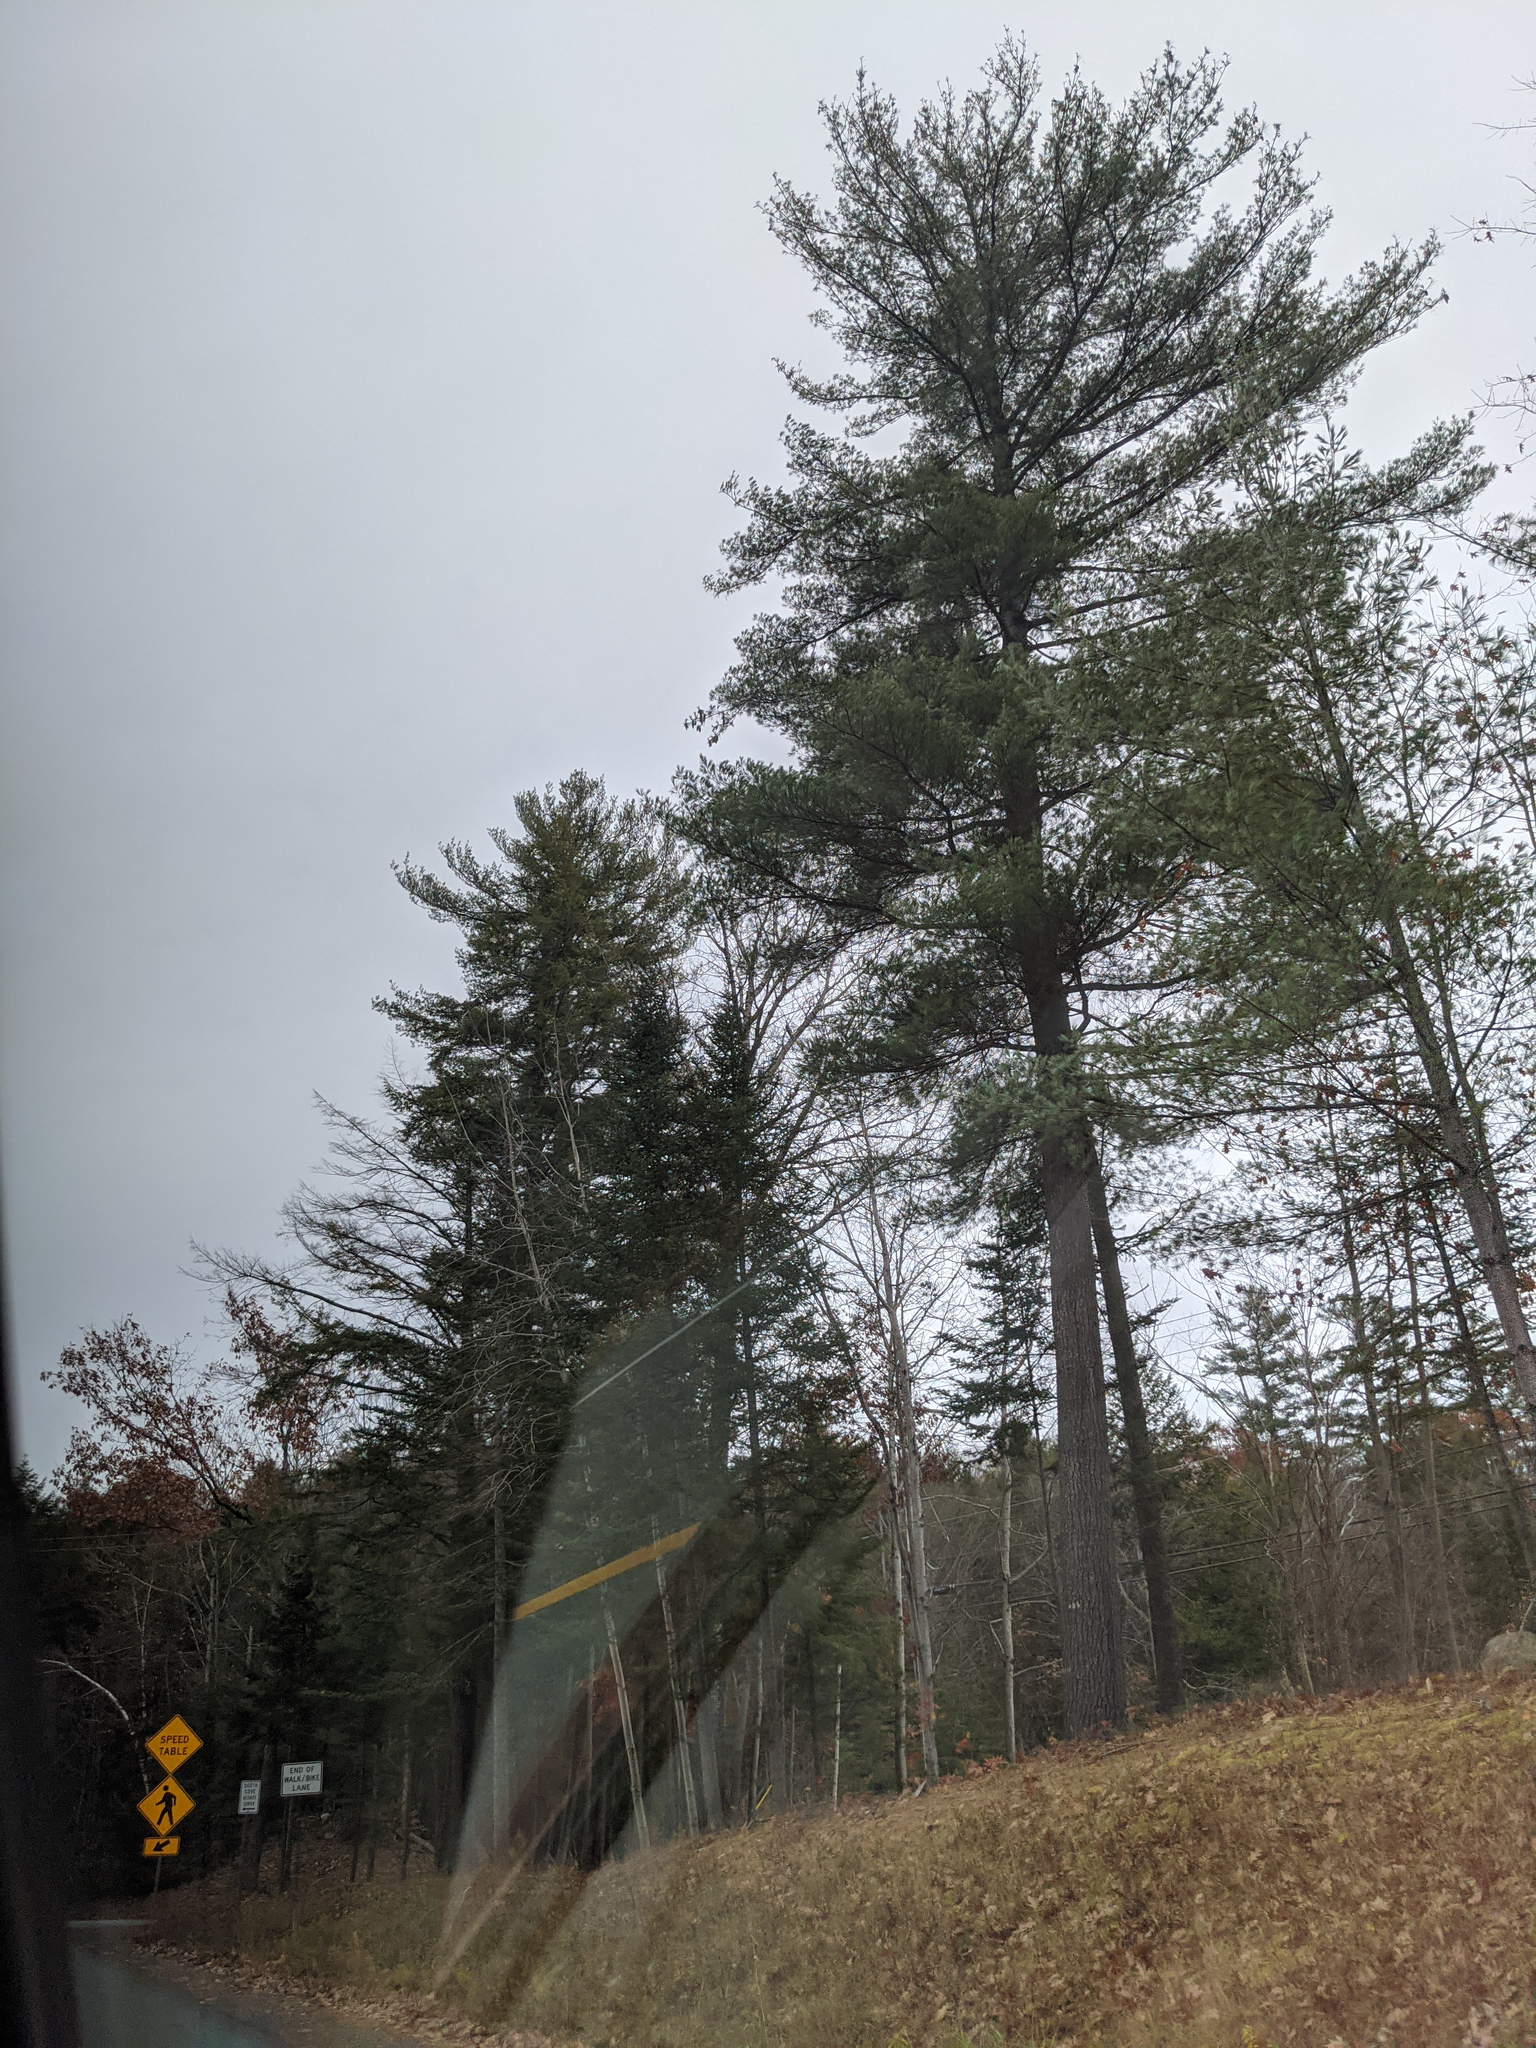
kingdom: Plantae
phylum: Tracheophyta
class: Pinopsida
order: Pinales
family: Pinaceae
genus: Pinus
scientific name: Pinus strobus
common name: Weymouth pine
